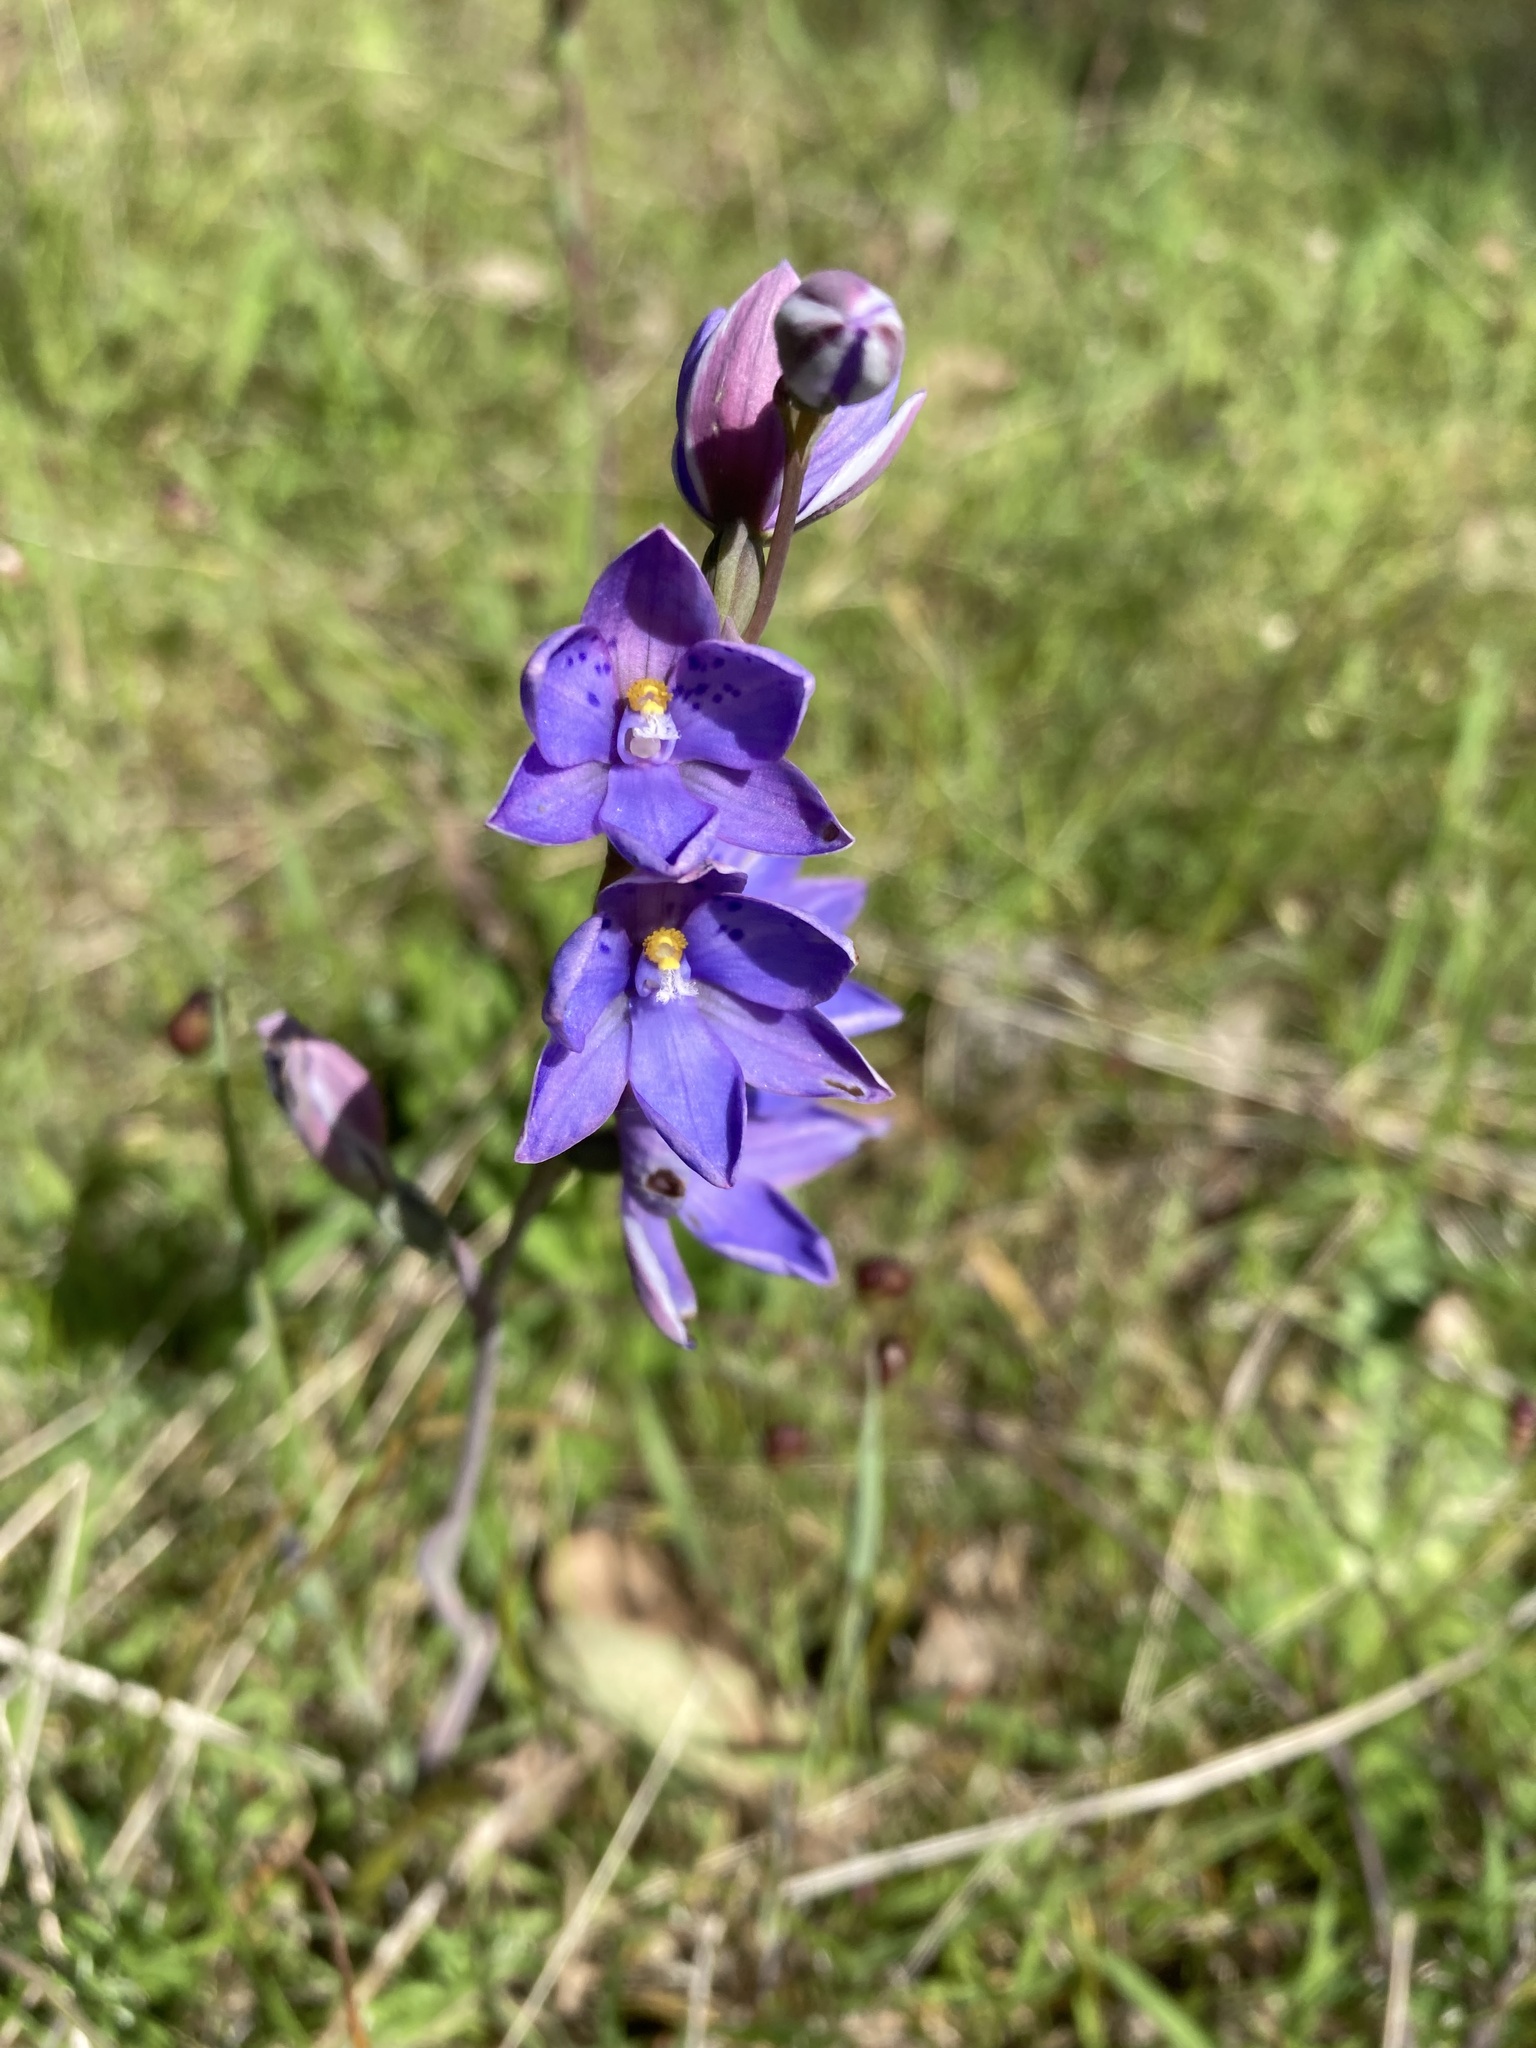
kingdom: Plantae
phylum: Tracheophyta
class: Liliopsida
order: Asparagales
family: Orchidaceae
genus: Thelymitra
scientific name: Thelymitra ixioides
